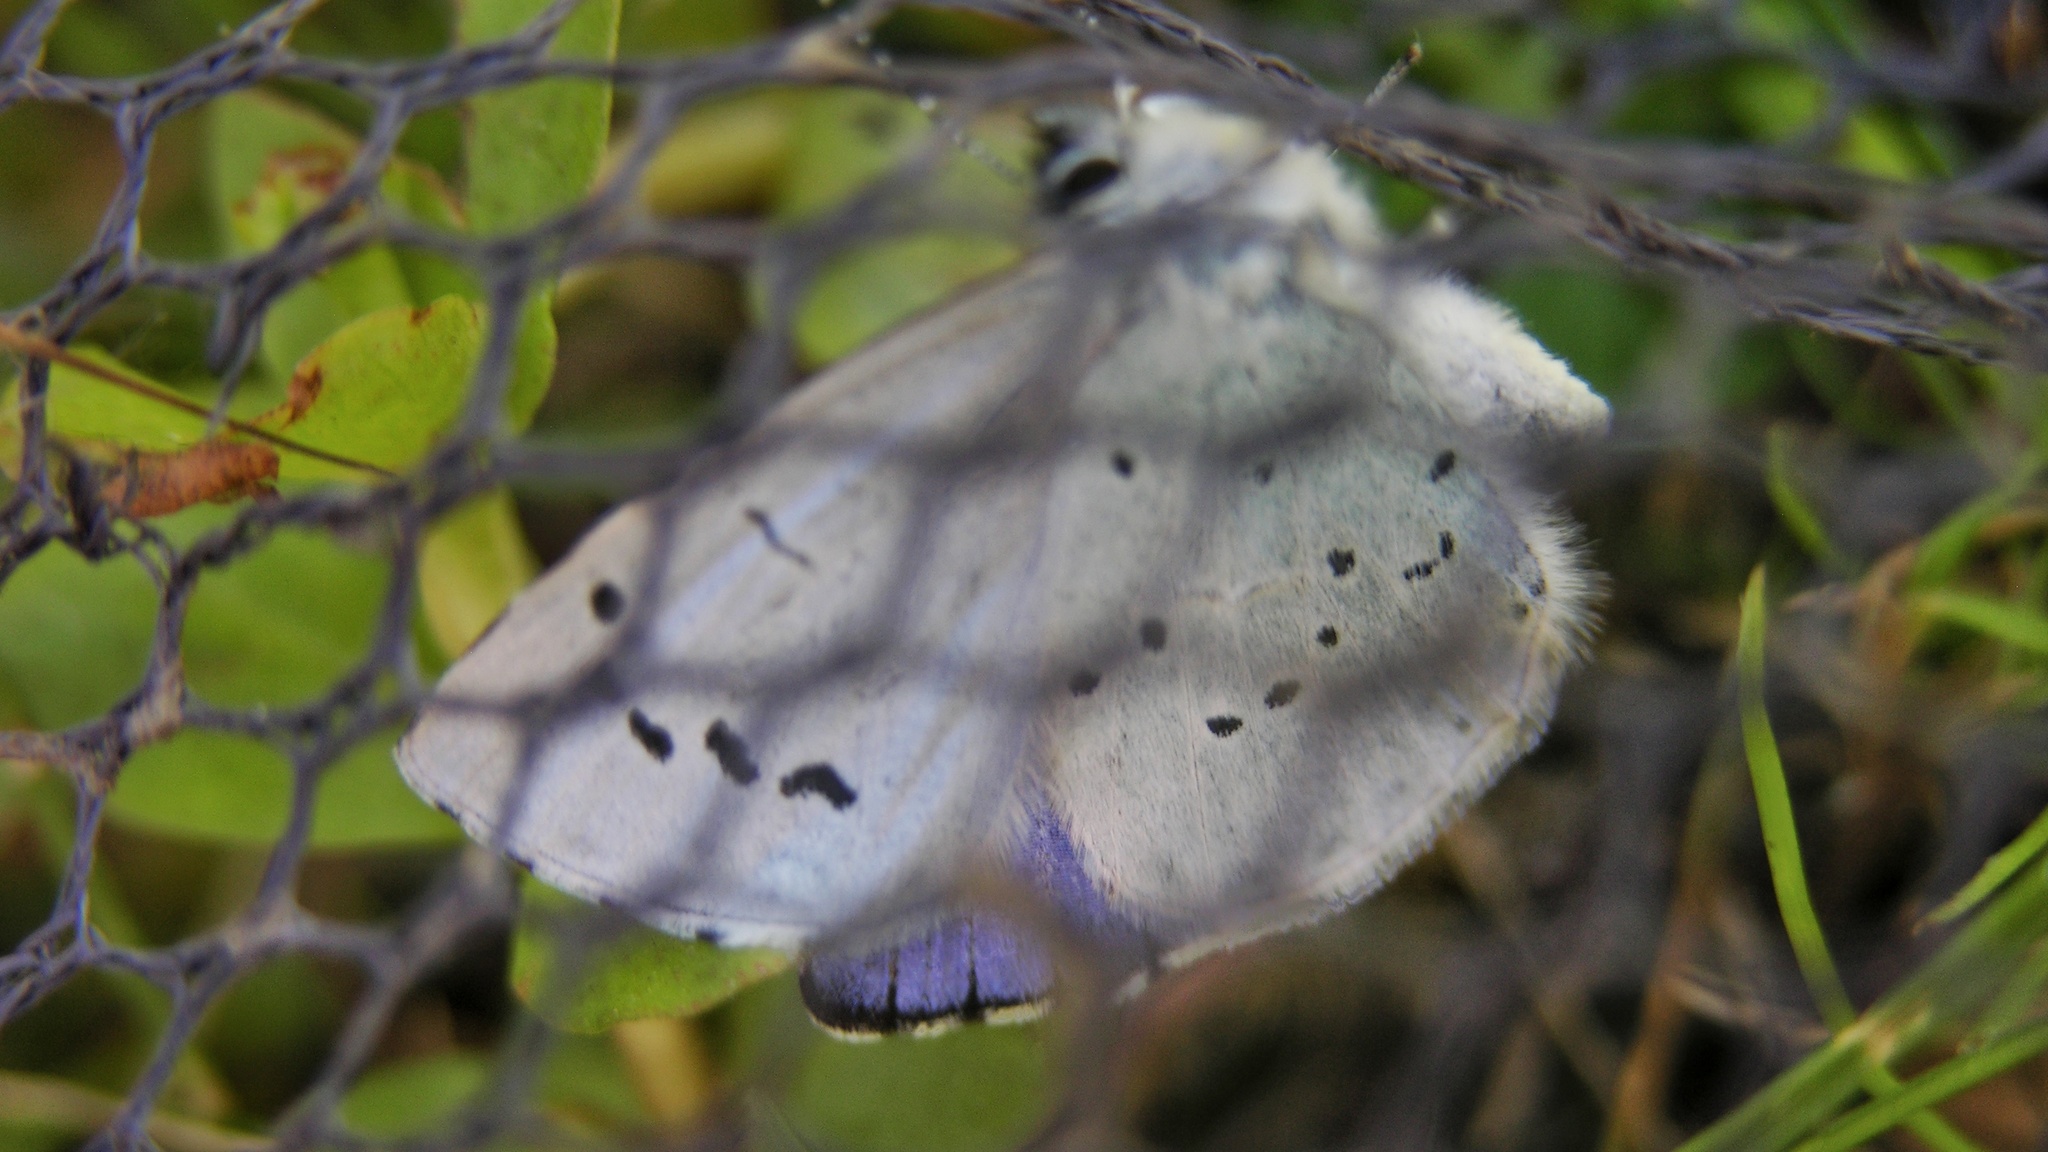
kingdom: Animalia
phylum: Arthropoda
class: Insecta
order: Lepidoptera
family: Lycaenidae
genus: Celastrina
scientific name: Celastrina argiolus
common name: Holly blue
